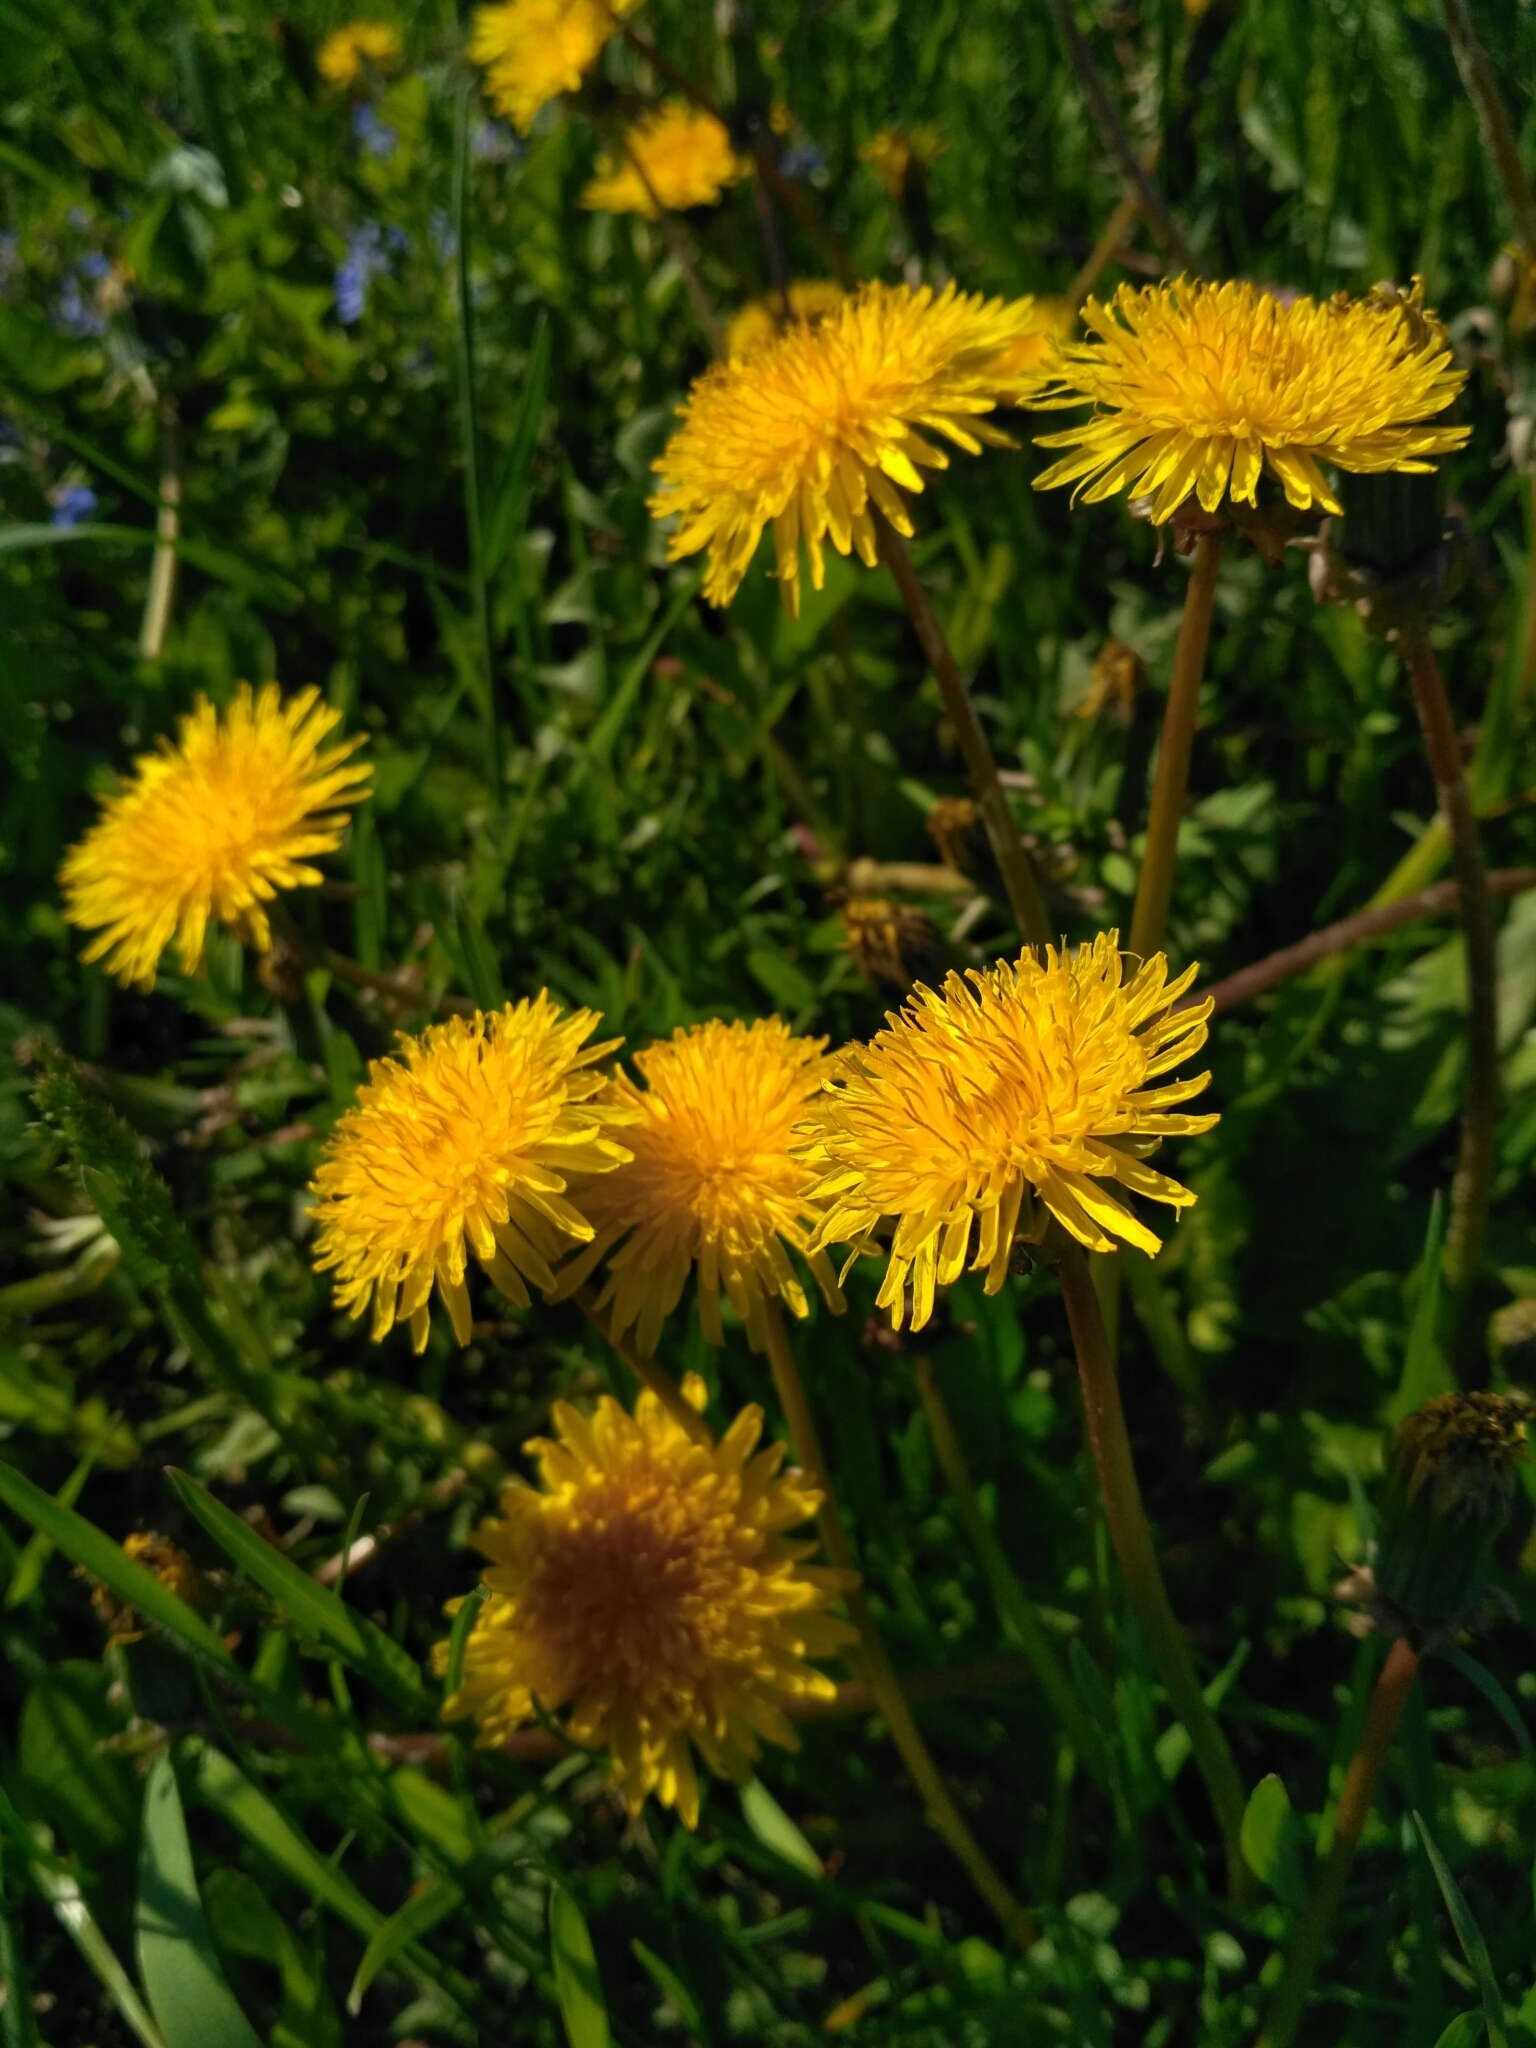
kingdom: Plantae
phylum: Tracheophyta
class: Magnoliopsida
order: Asterales
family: Asteraceae
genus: Taraxacum
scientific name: Taraxacum officinale
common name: Common dandelion
